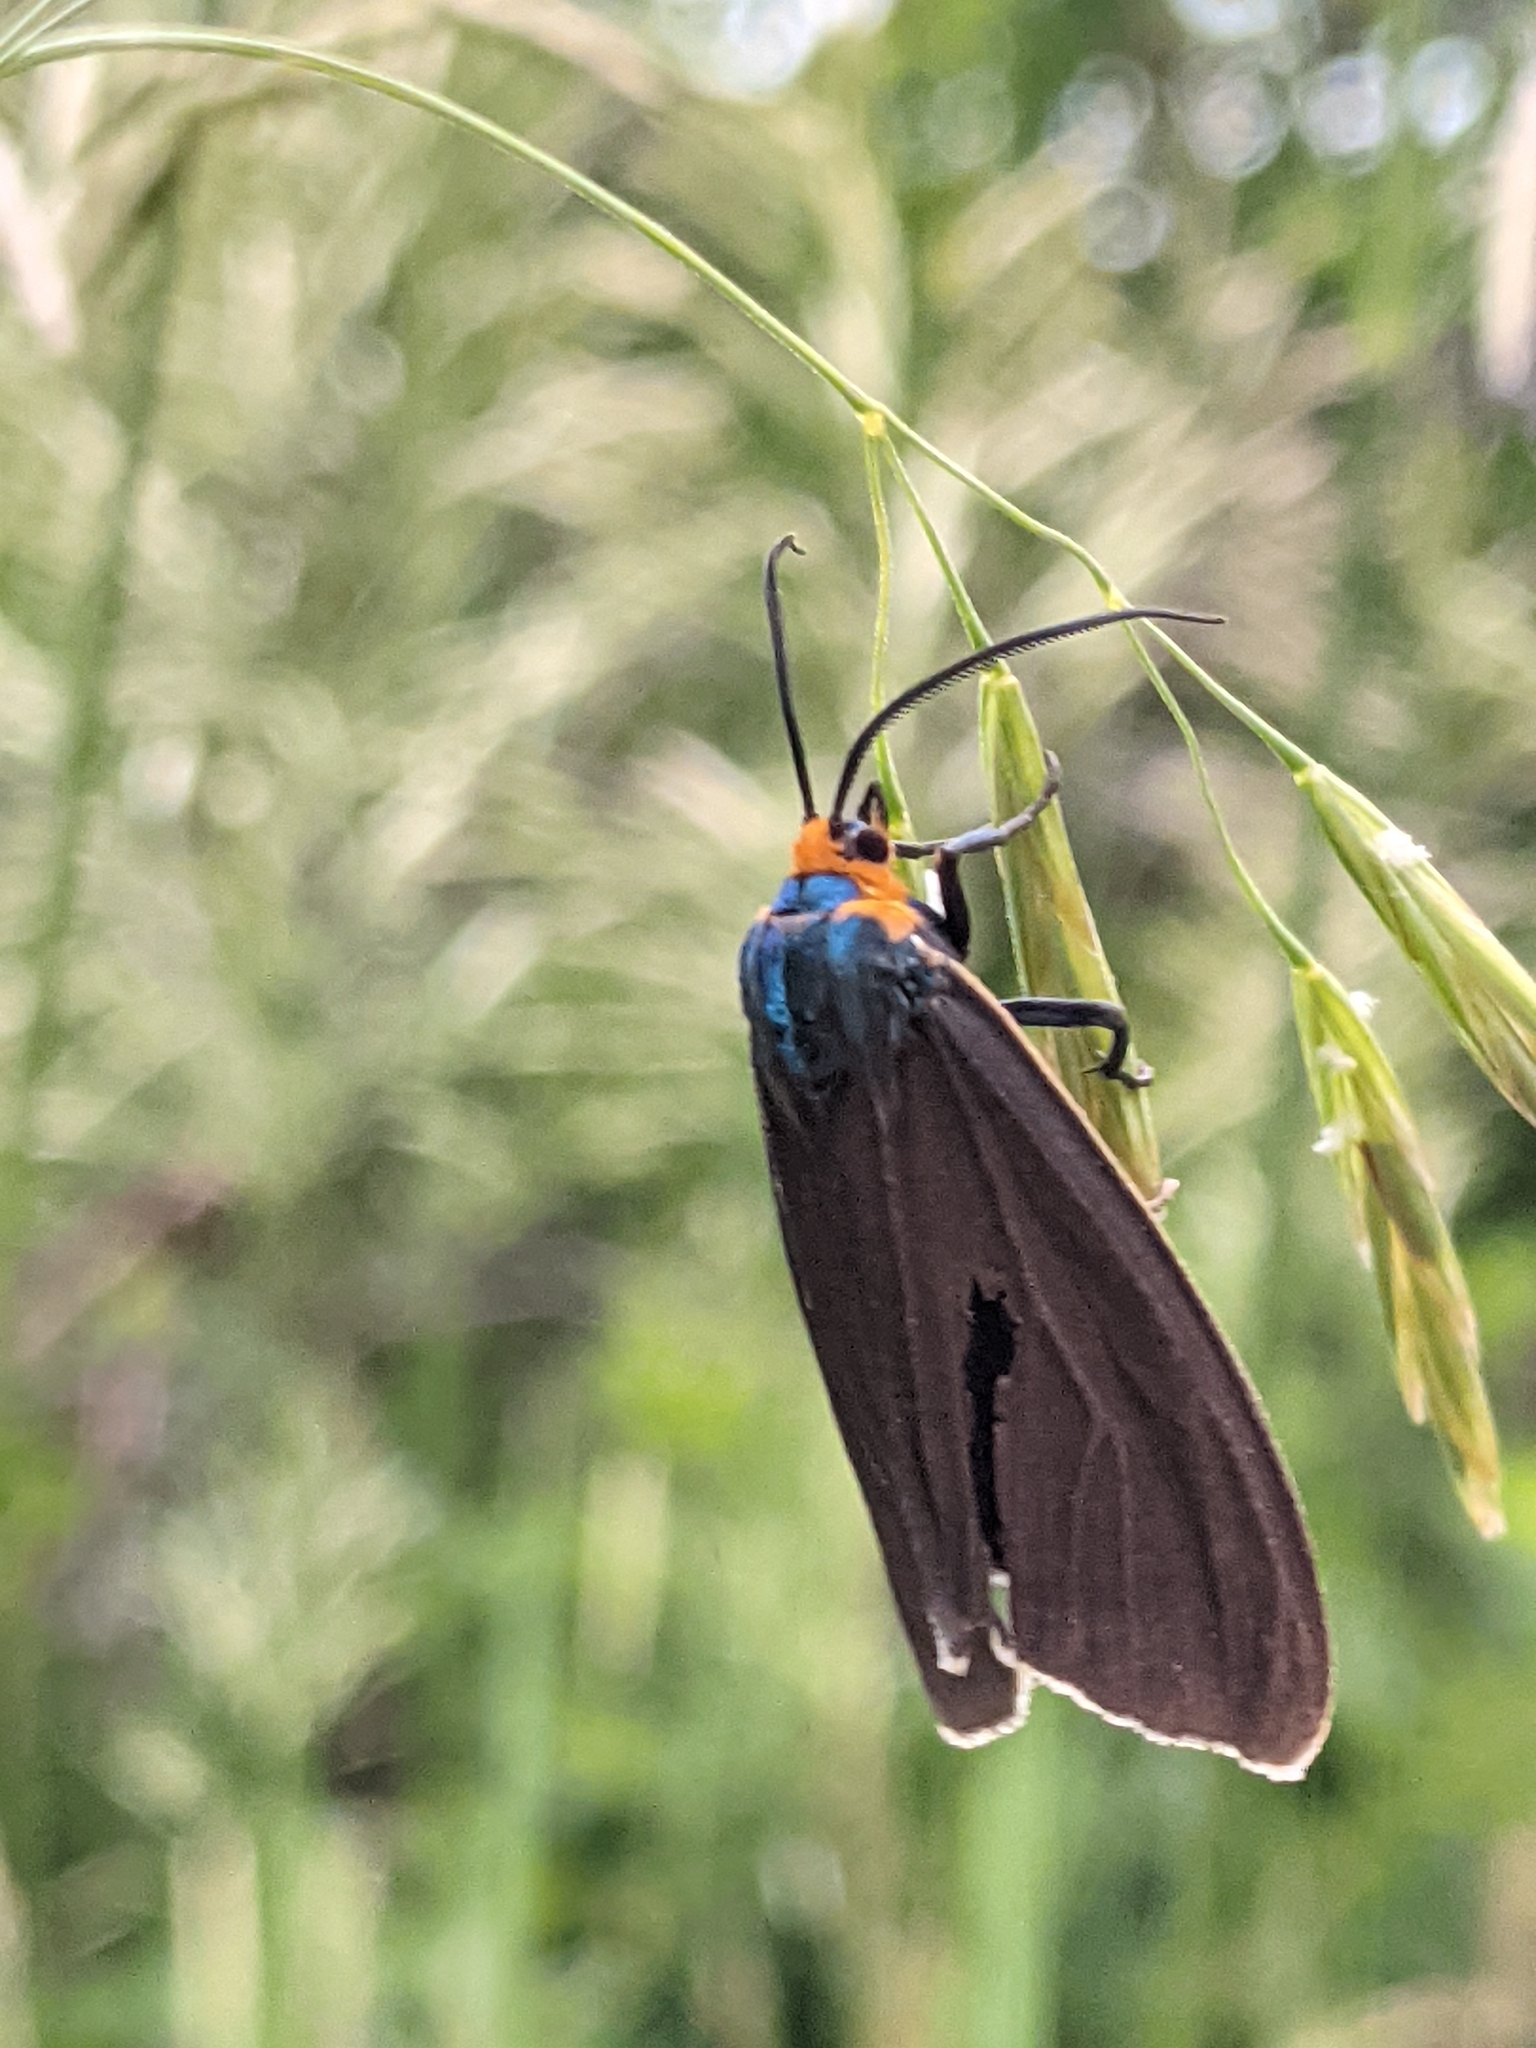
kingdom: Animalia
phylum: Arthropoda
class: Insecta
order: Lepidoptera
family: Erebidae
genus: Ctenucha
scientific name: Ctenucha virginica
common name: Virginia ctenucha moth
